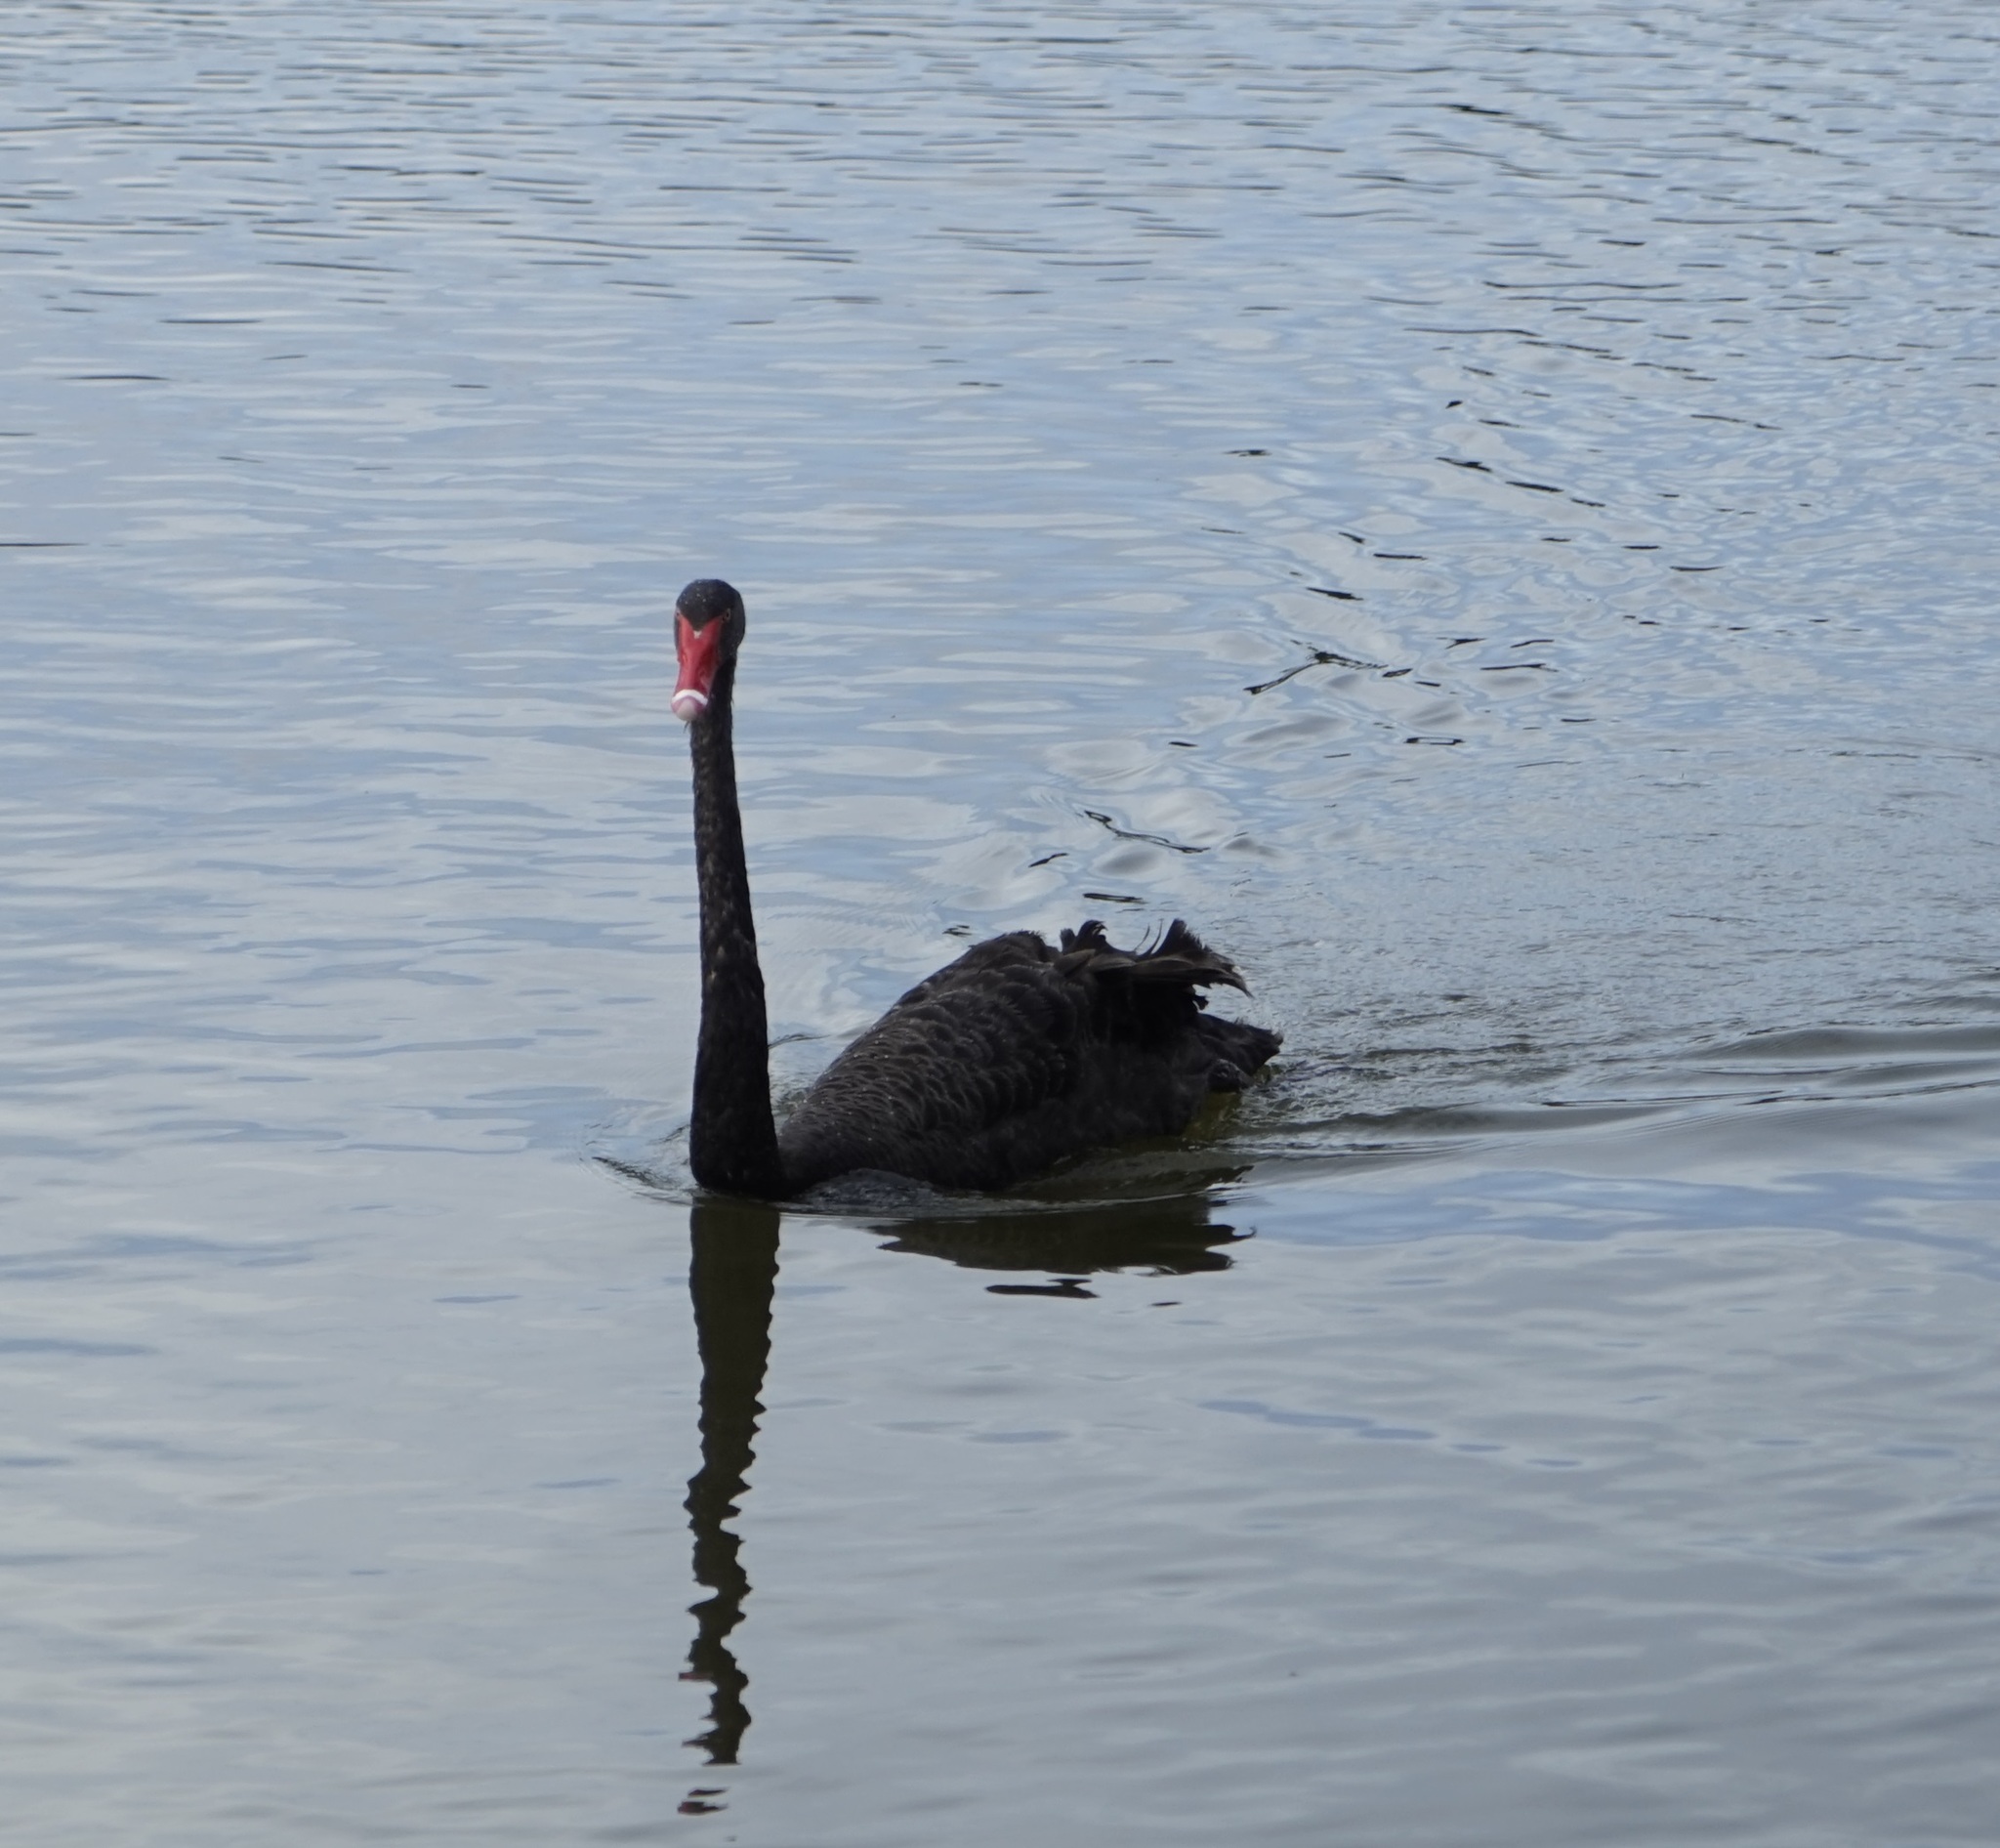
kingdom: Animalia
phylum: Chordata
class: Aves
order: Anseriformes
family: Anatidae
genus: Cygnus
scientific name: Cygnus atratus
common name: Black swan
